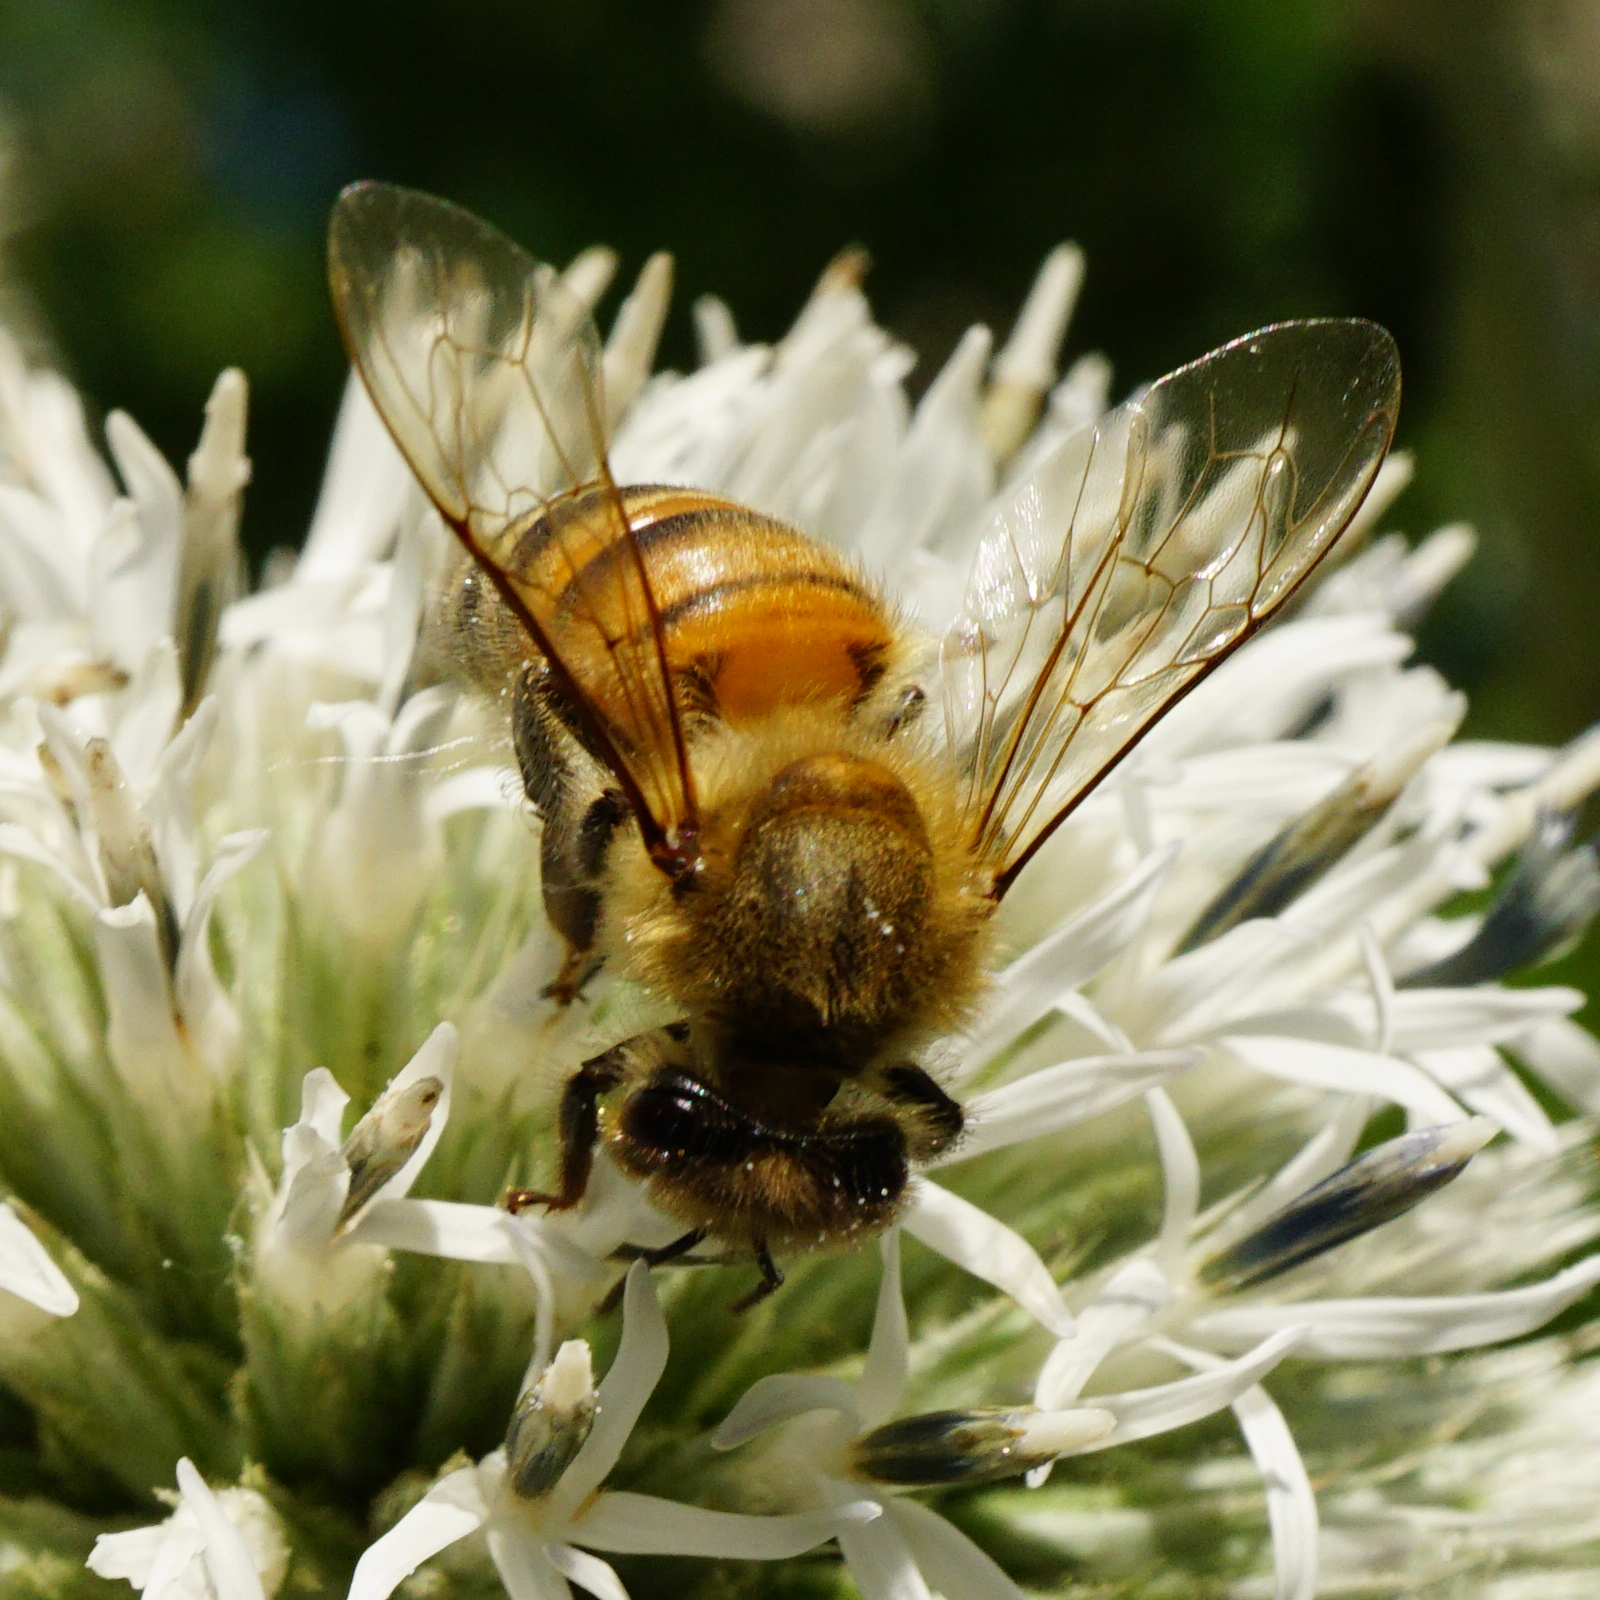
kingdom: Animalia
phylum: Arthropoda
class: Insecta
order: Hymenoptera
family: Apidae
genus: Apis
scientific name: Apis mellifera
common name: Honey bee
